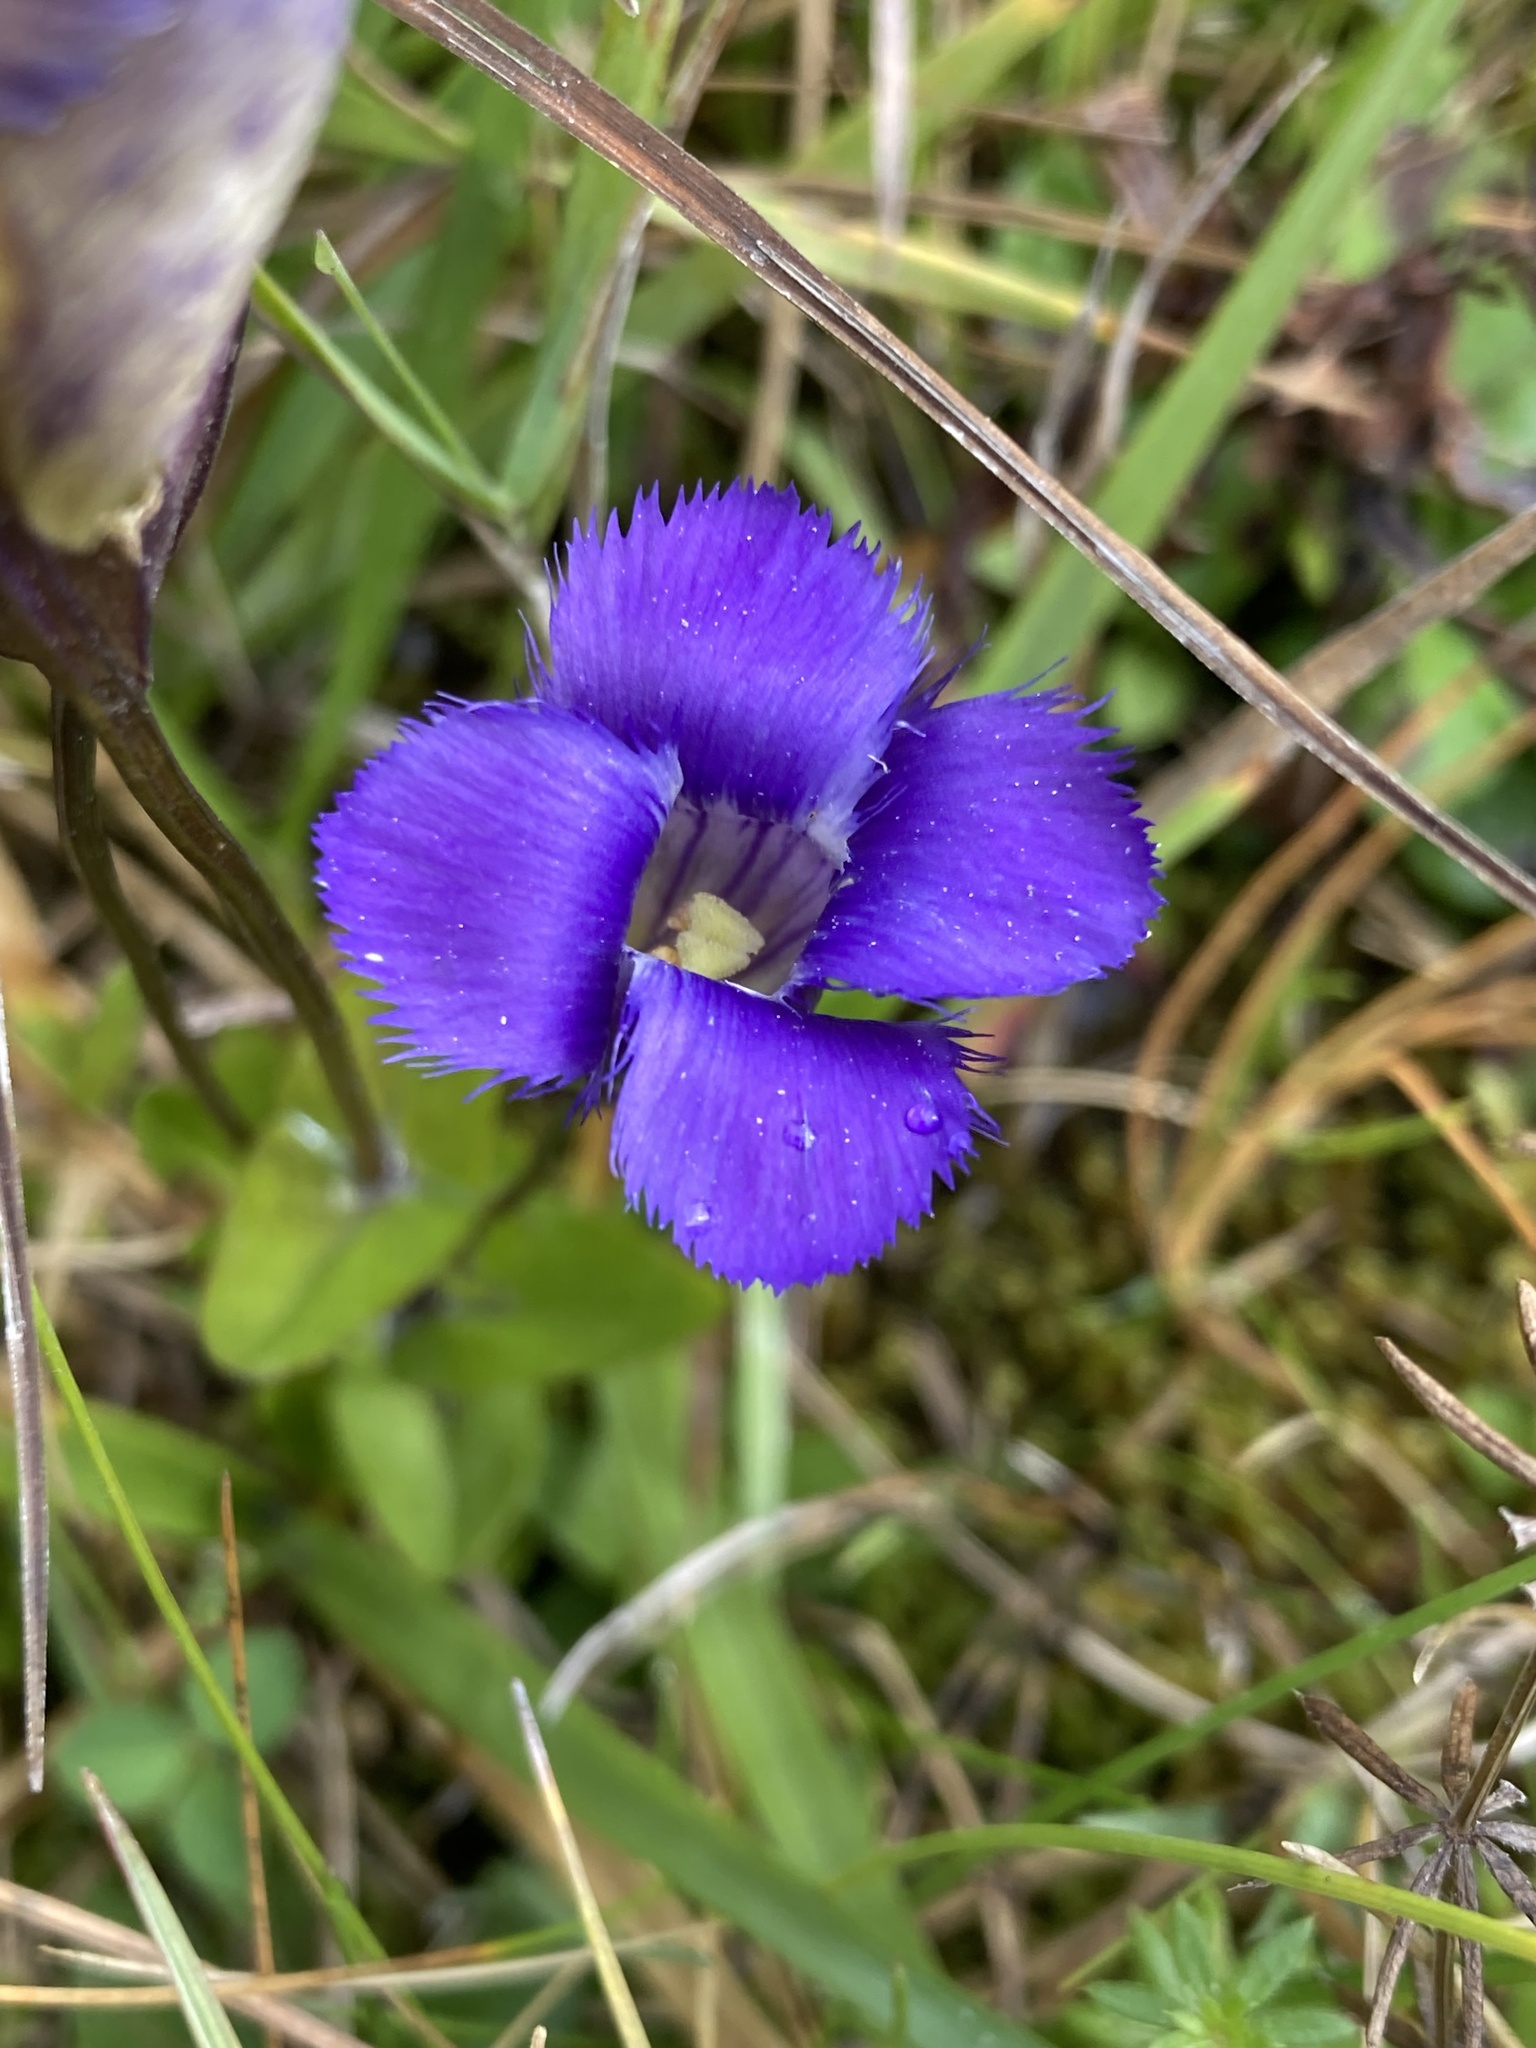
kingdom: Plantae
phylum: Tracheophyta
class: Magnoliopsida
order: Gentianales
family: Gentianaceae
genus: Gentianopsis
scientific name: Gentianopsis crinita
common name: Fringed-gentian
